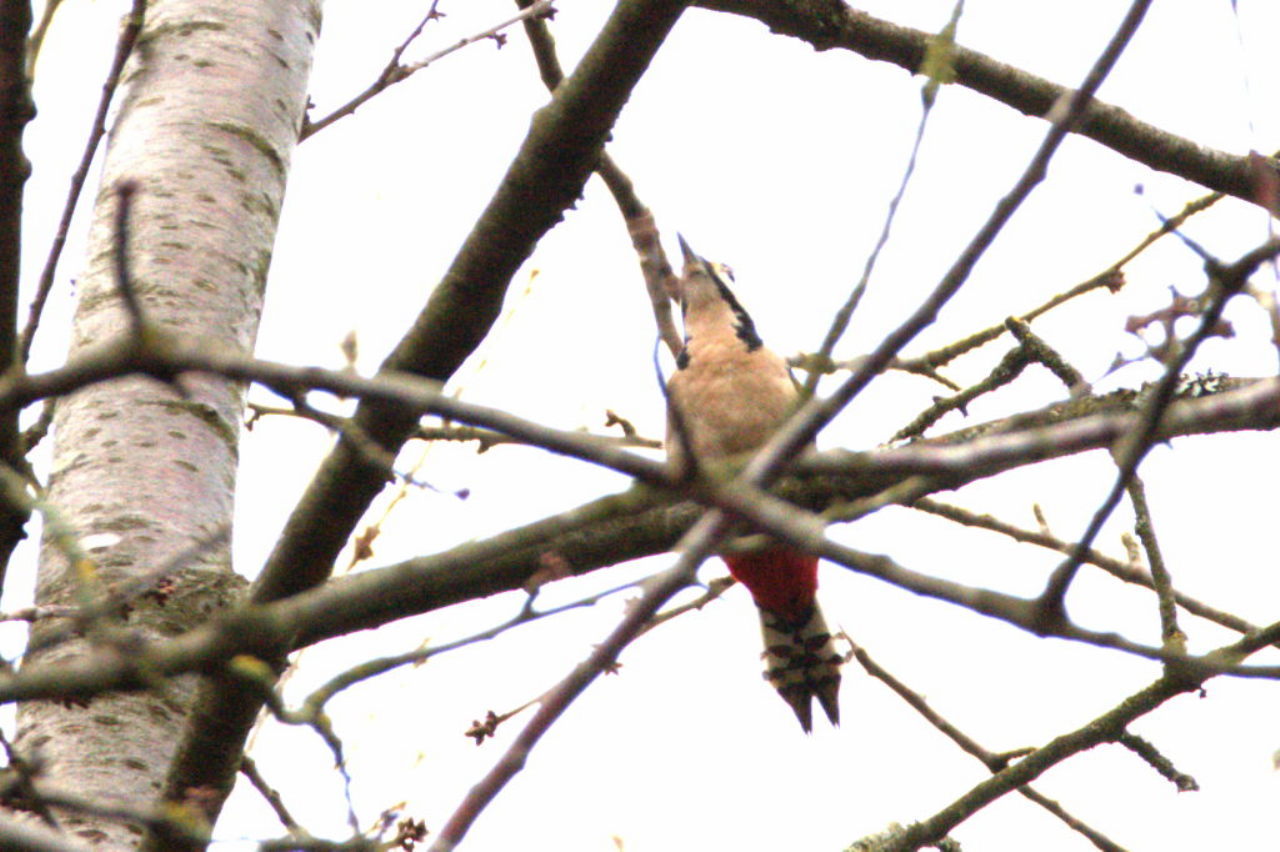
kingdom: Animalia
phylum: Chordata
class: Aves
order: Piciformes
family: Picidae
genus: Dendrocopos
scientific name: Dendrocopos major
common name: Great spotted woodpecker
